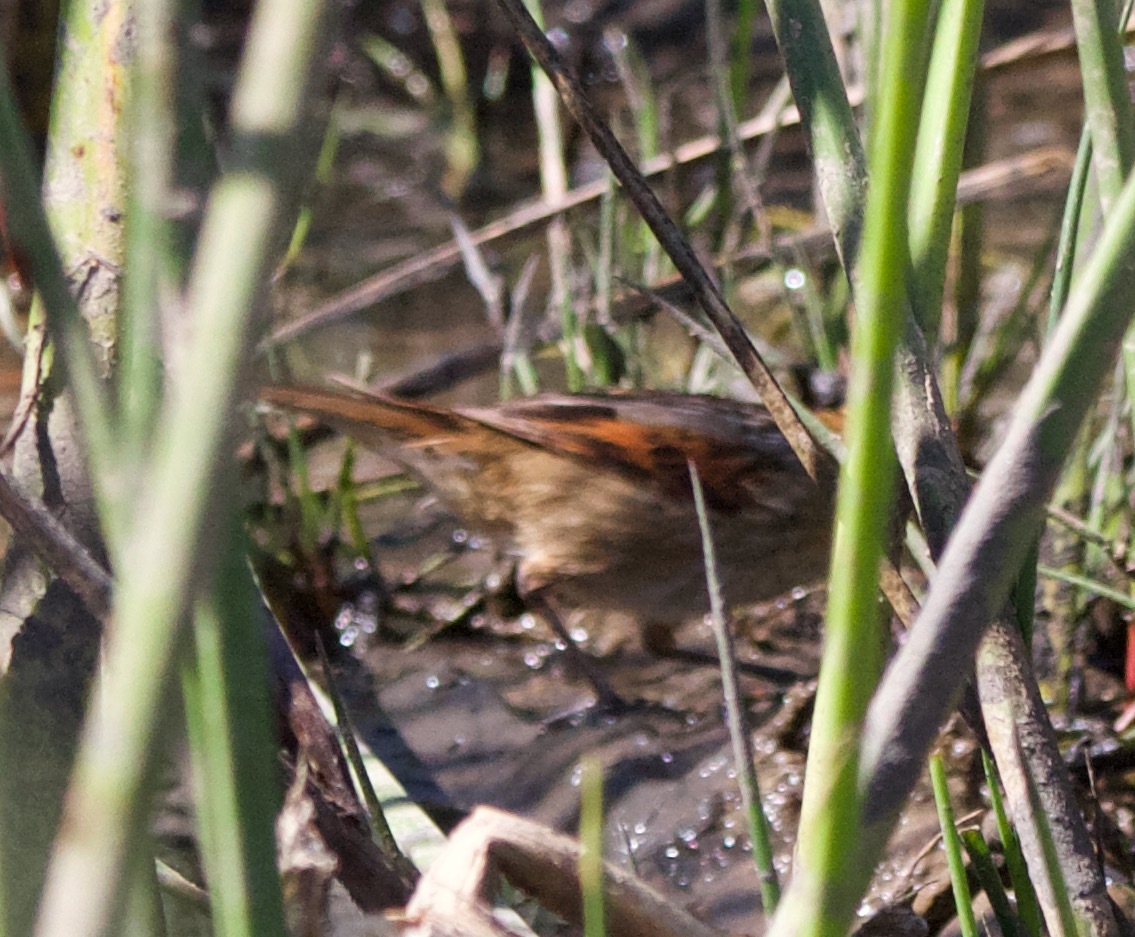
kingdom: Animalia
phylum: Chordata
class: Aves
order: Passeriformes
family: Furnariidae
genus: Phleocryptes
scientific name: Phleocryptes melanops
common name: Wren-like rushbird
